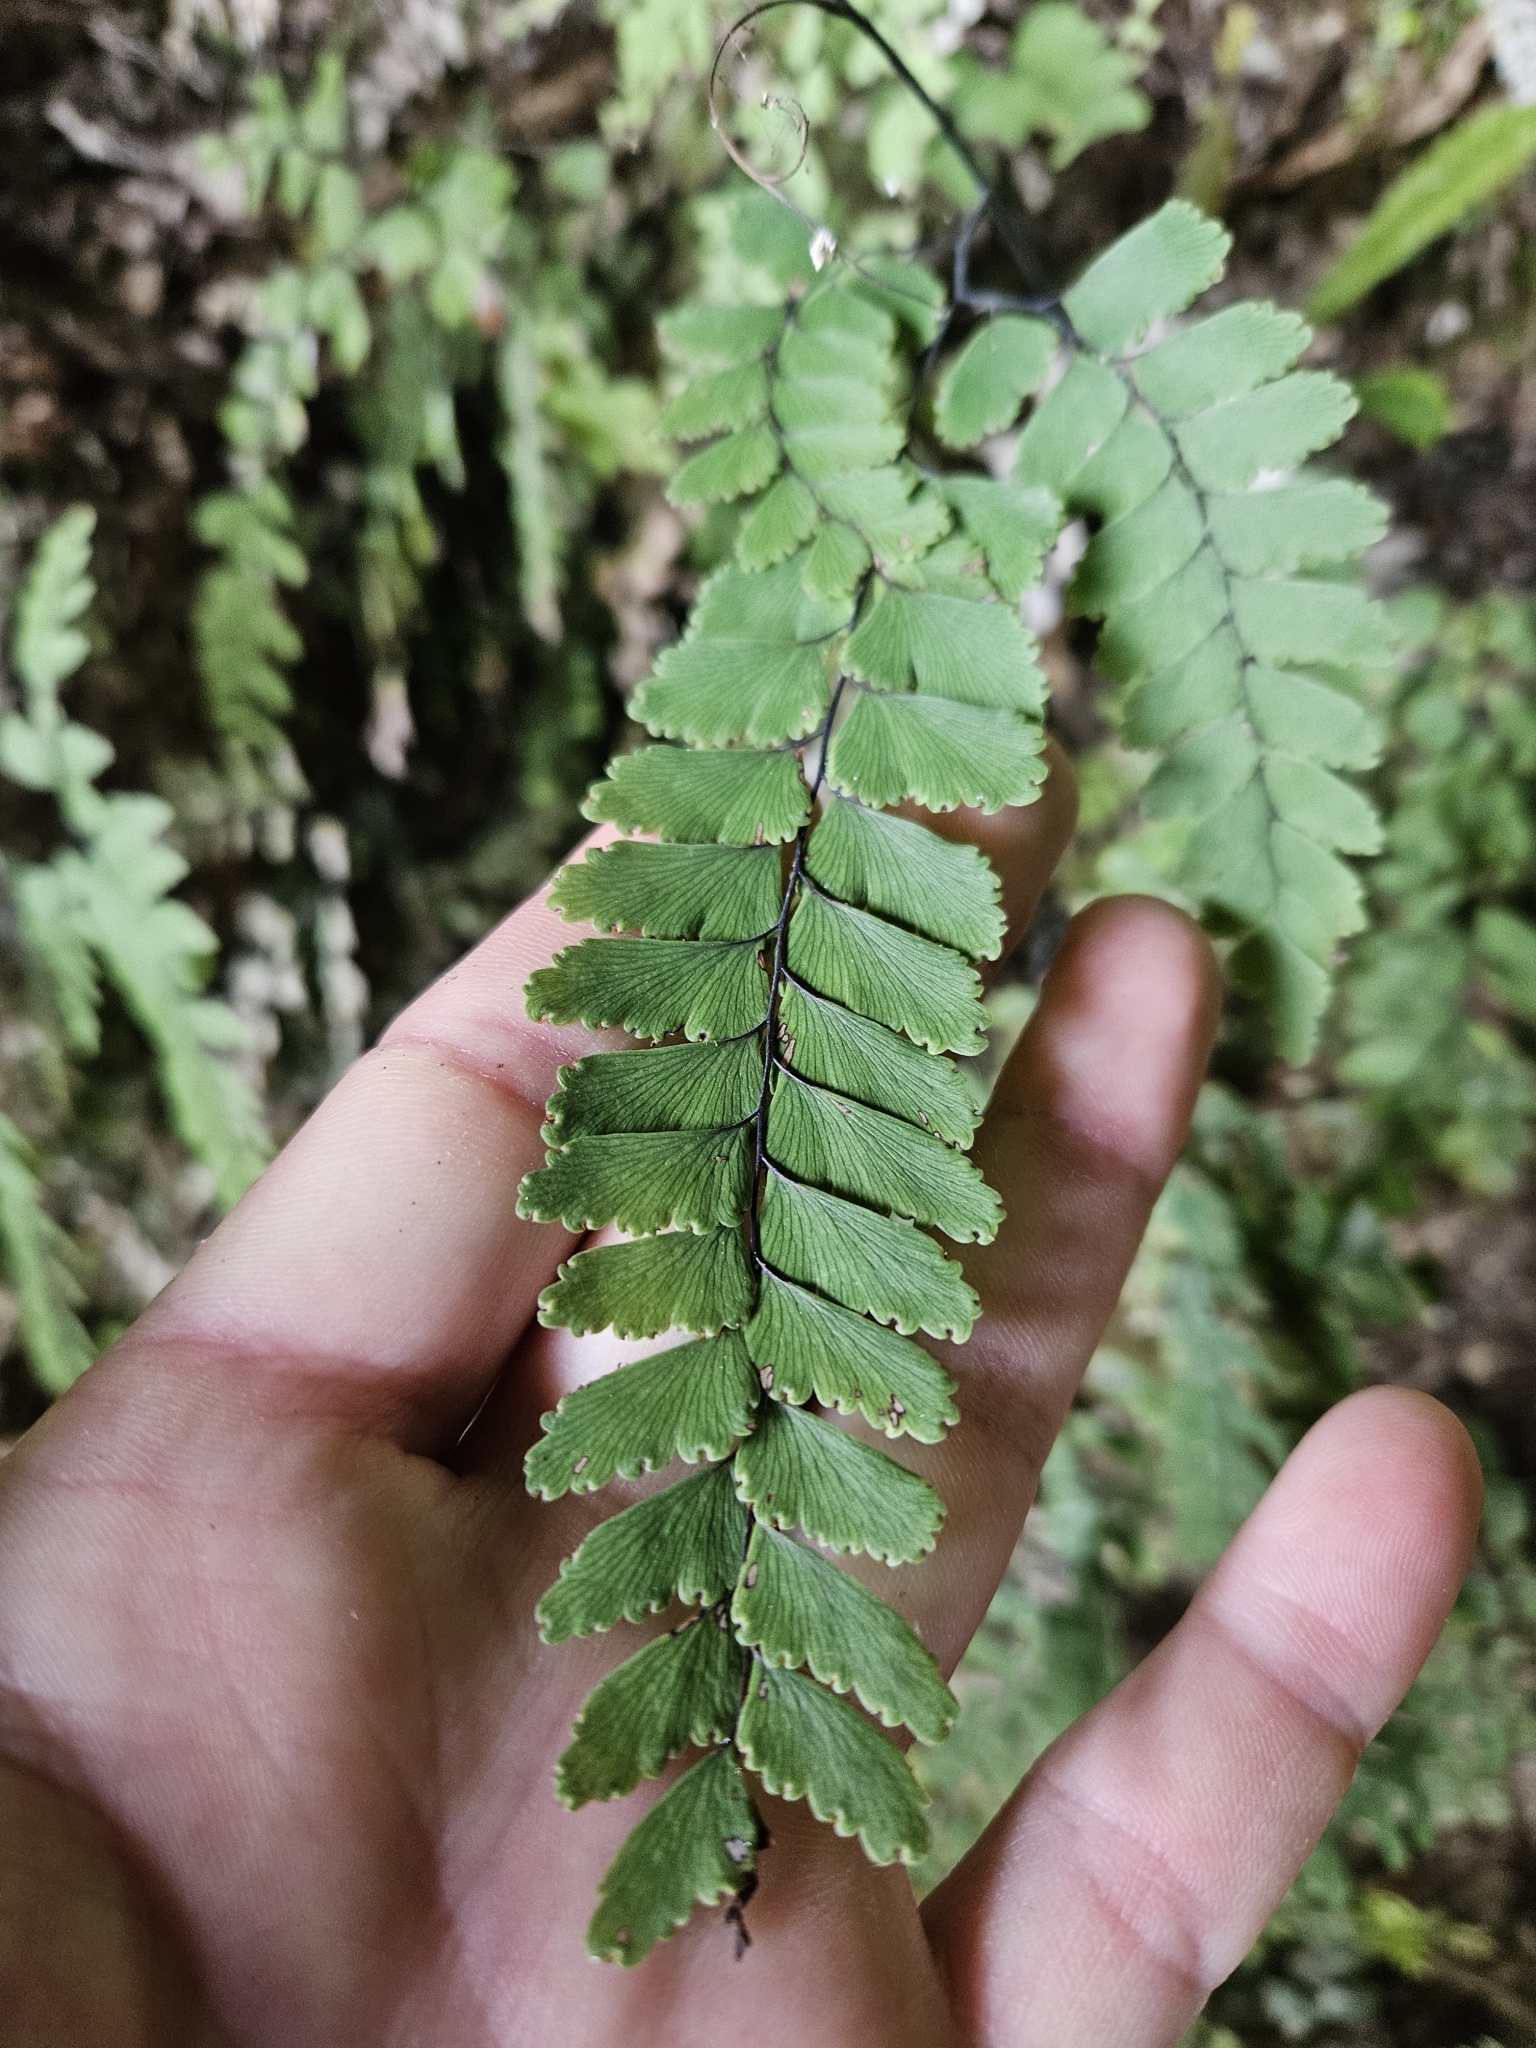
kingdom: Plantae
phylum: Tracheophyta
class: Polypodiopsida
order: Polypodiales
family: Pteridaceae
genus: Adiantum
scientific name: Adiantum cunninghamii
